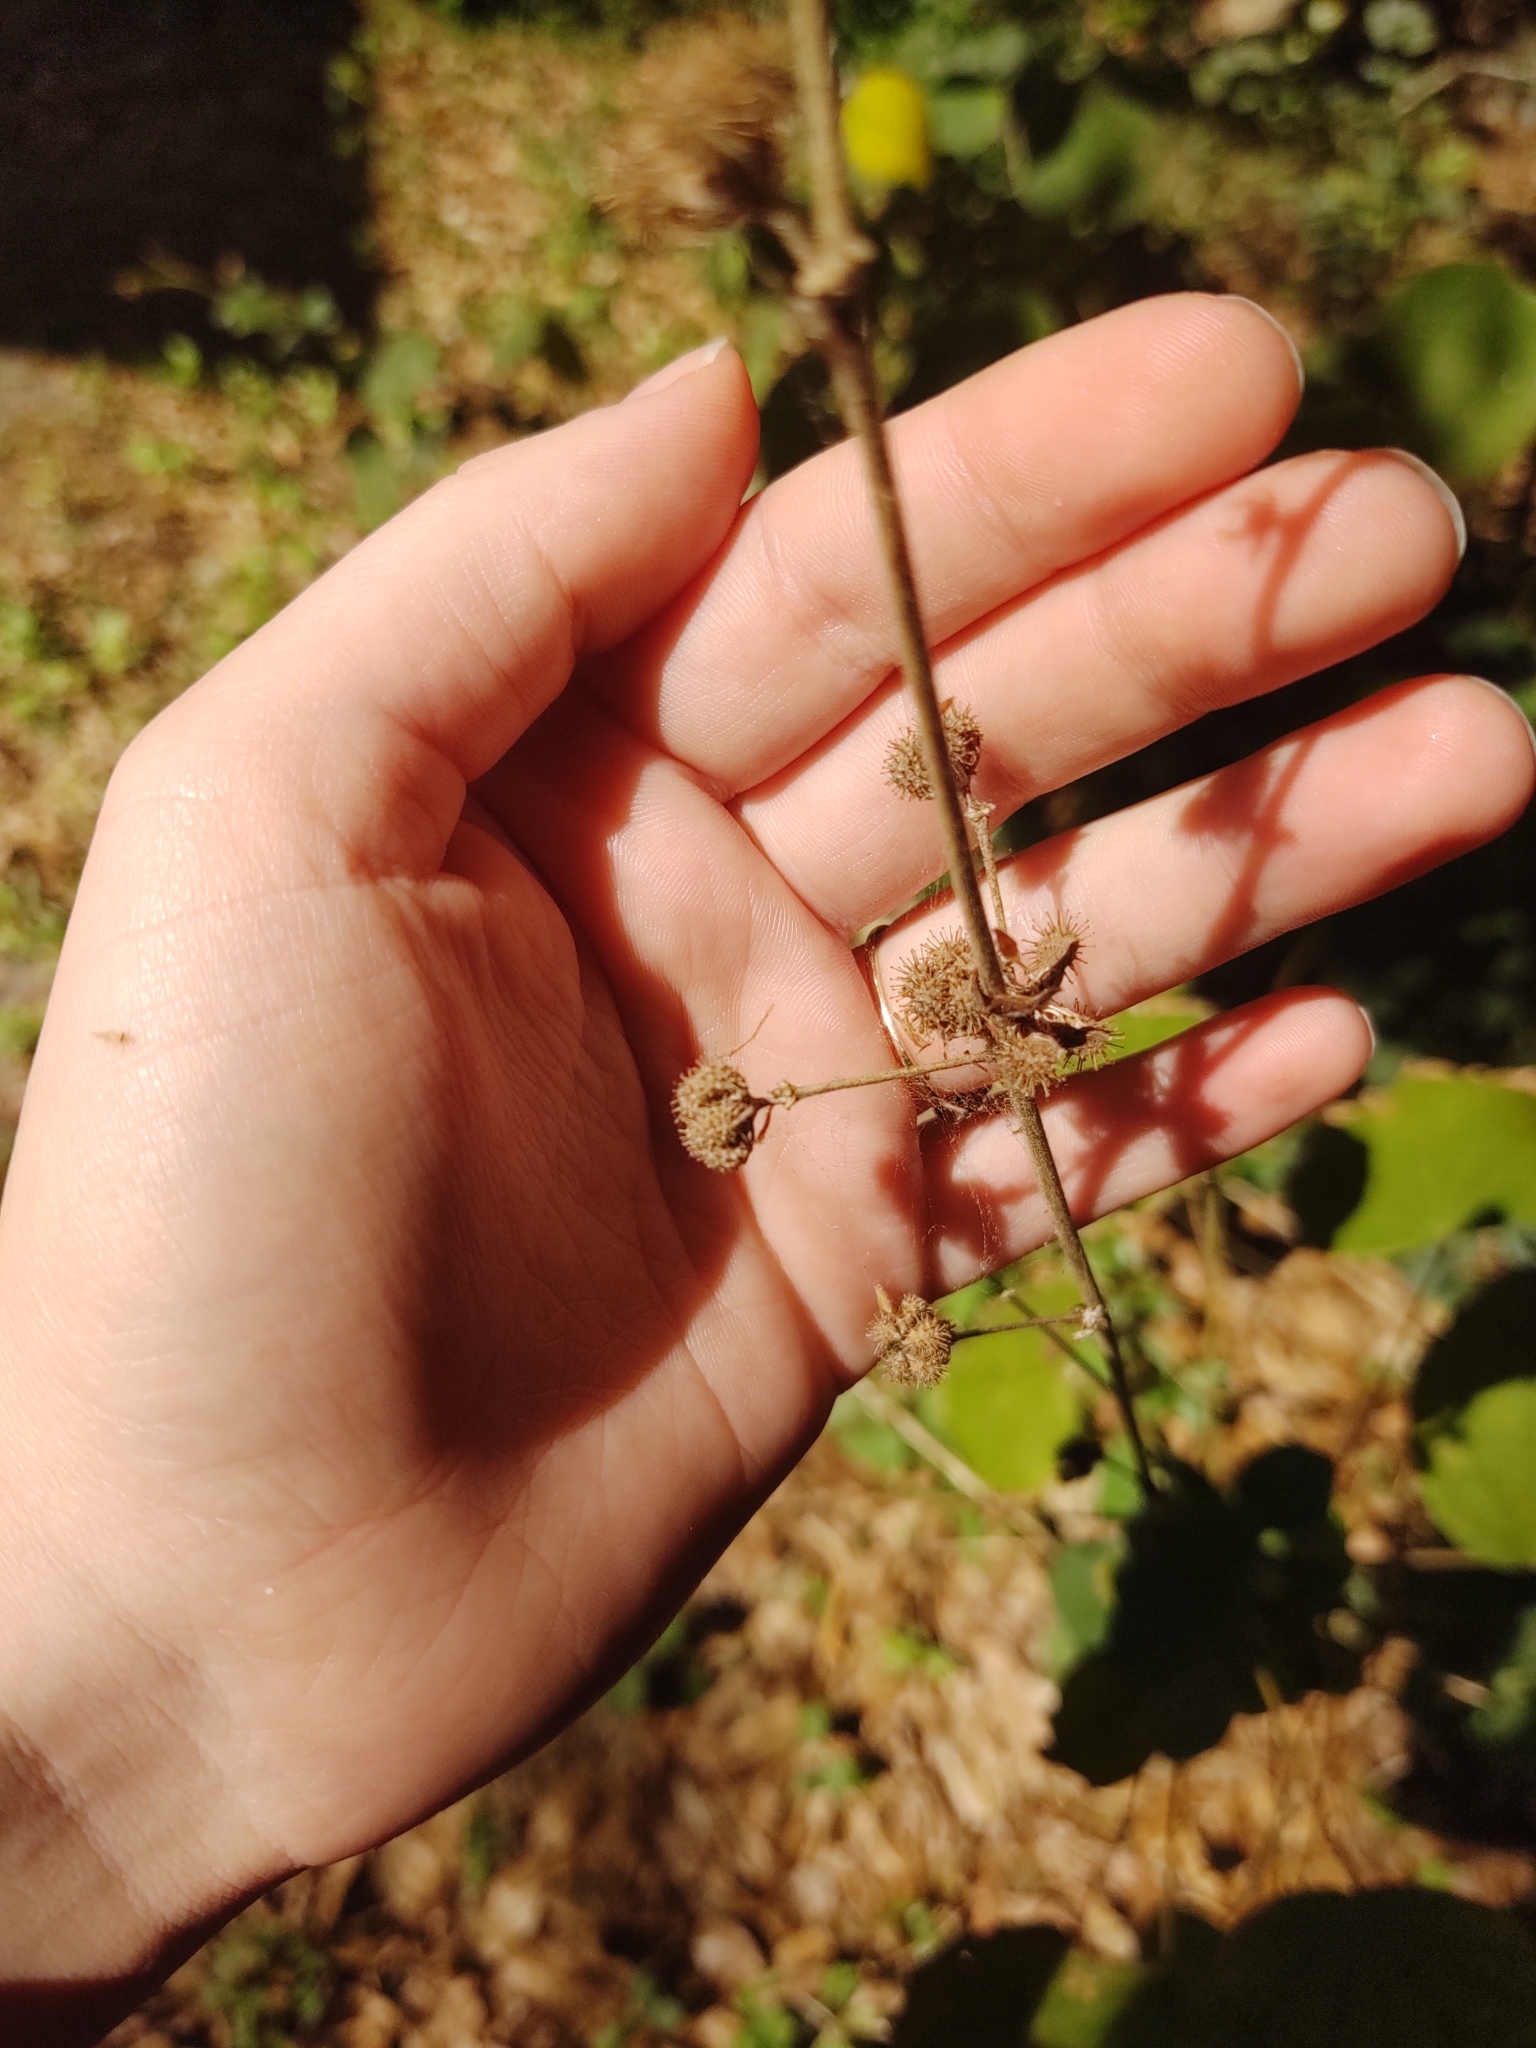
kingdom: Plantae
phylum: Tracheophyta
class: Magnoliopsida
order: Malvales
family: Malvaceae
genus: Urena
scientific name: Urena lobata
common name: Caesarweed
